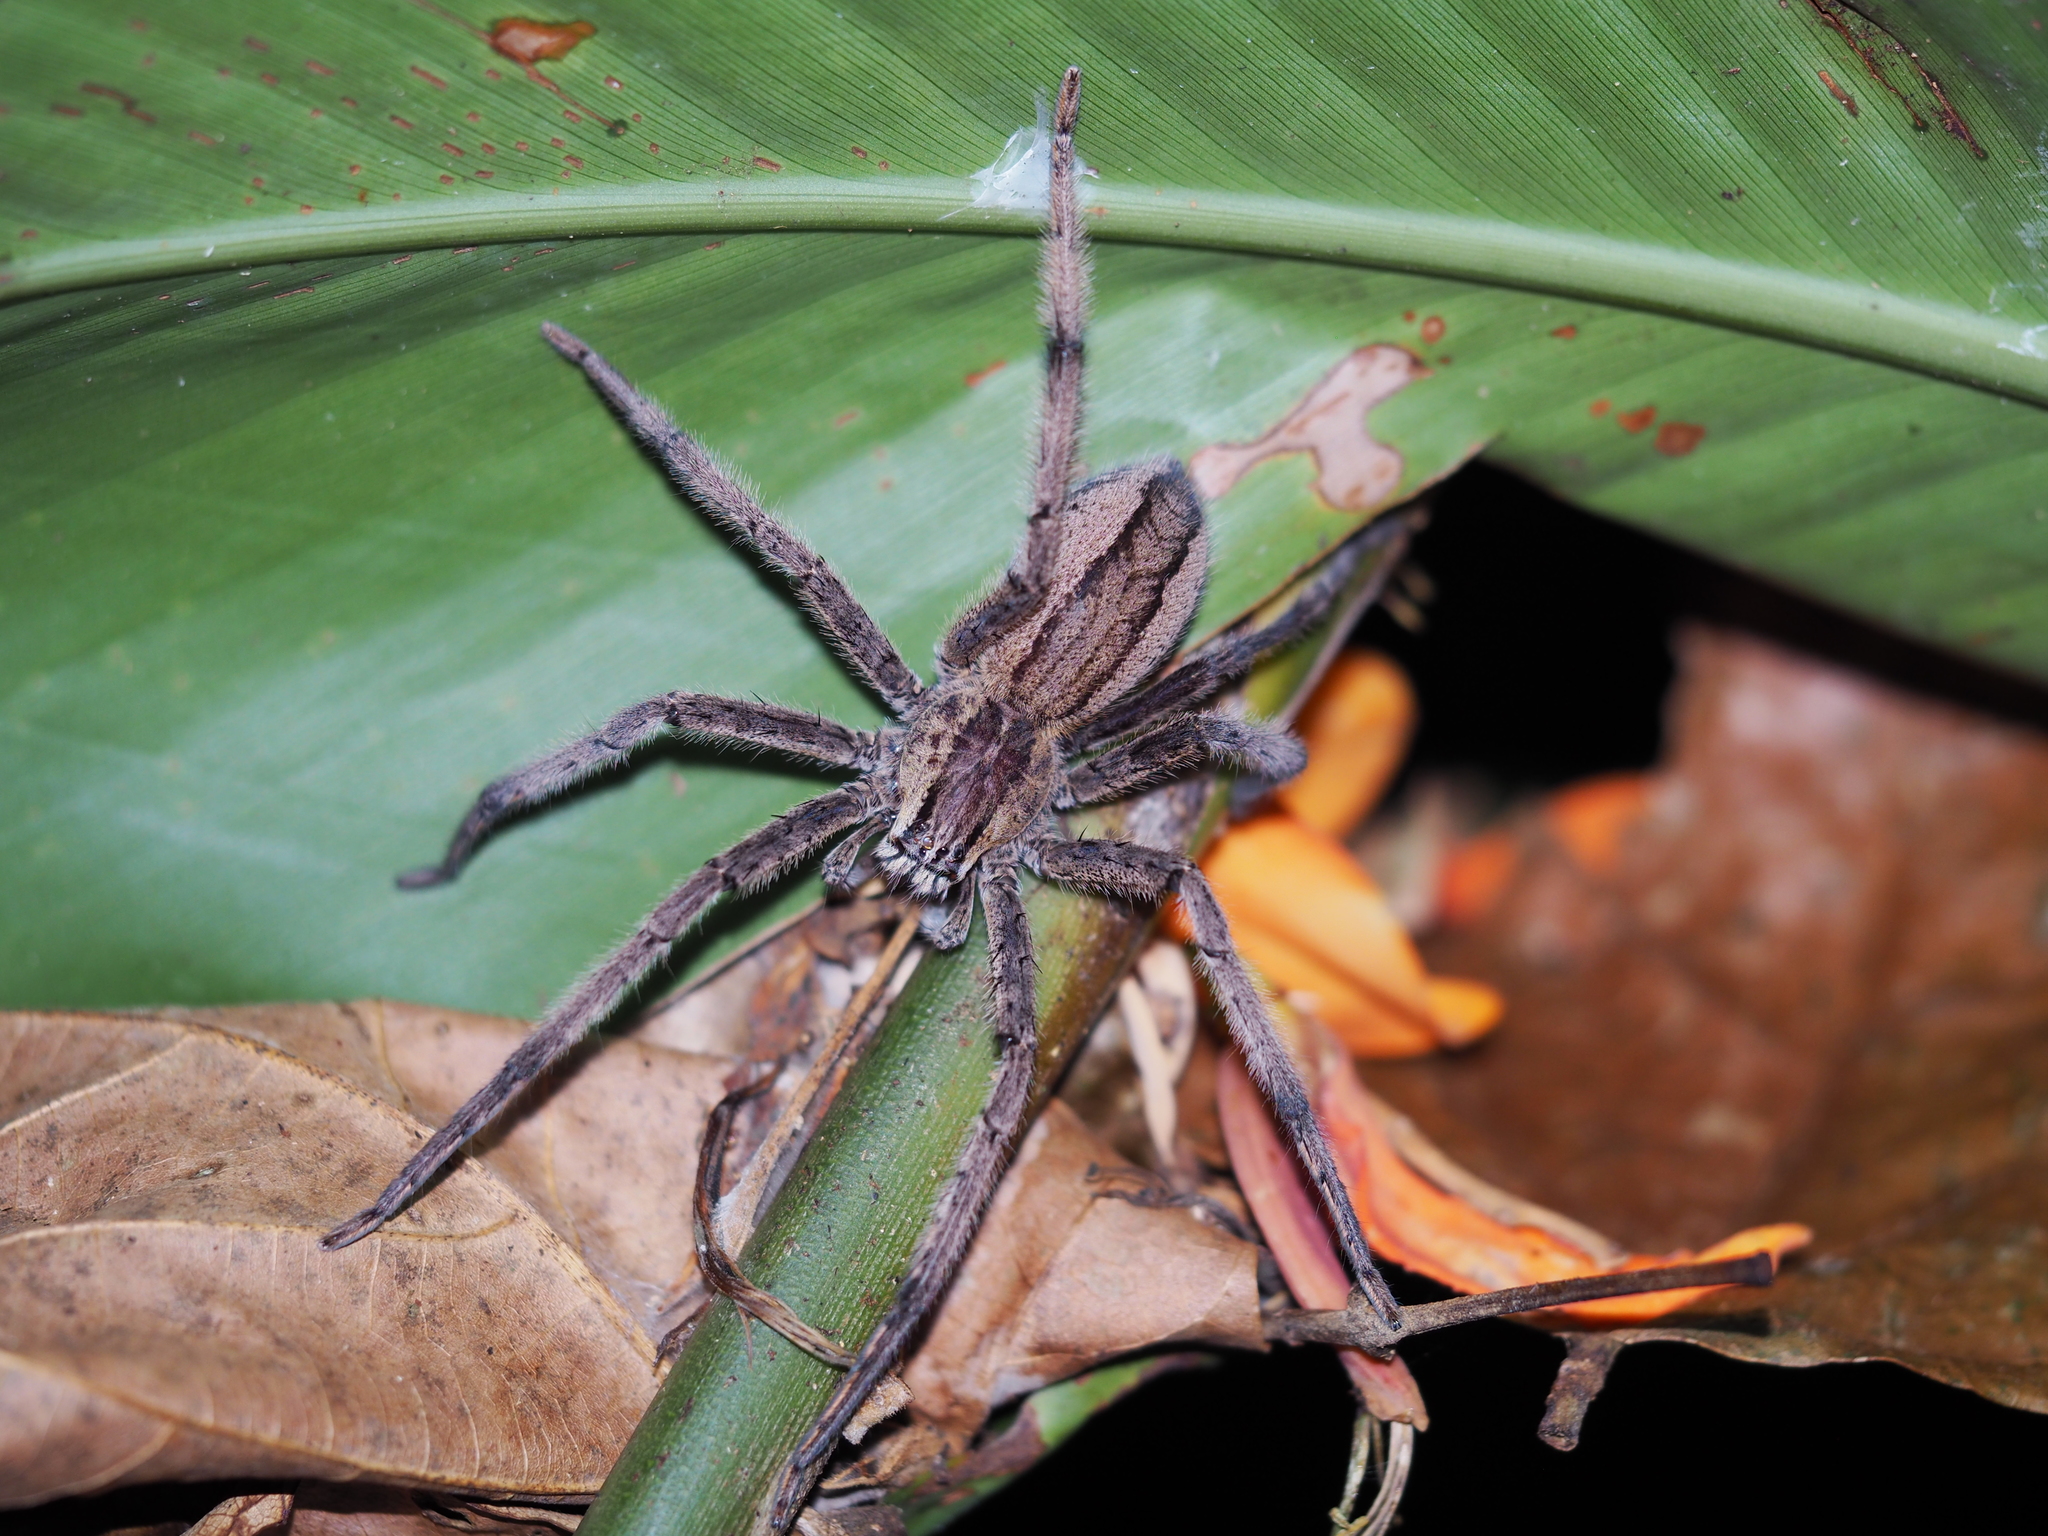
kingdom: Animalia
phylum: Arthropoda
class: Arachnida
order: Araneae
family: Trechaleidae
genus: Cupiennius
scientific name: Cupiennius getazi
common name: Wandering spiders
